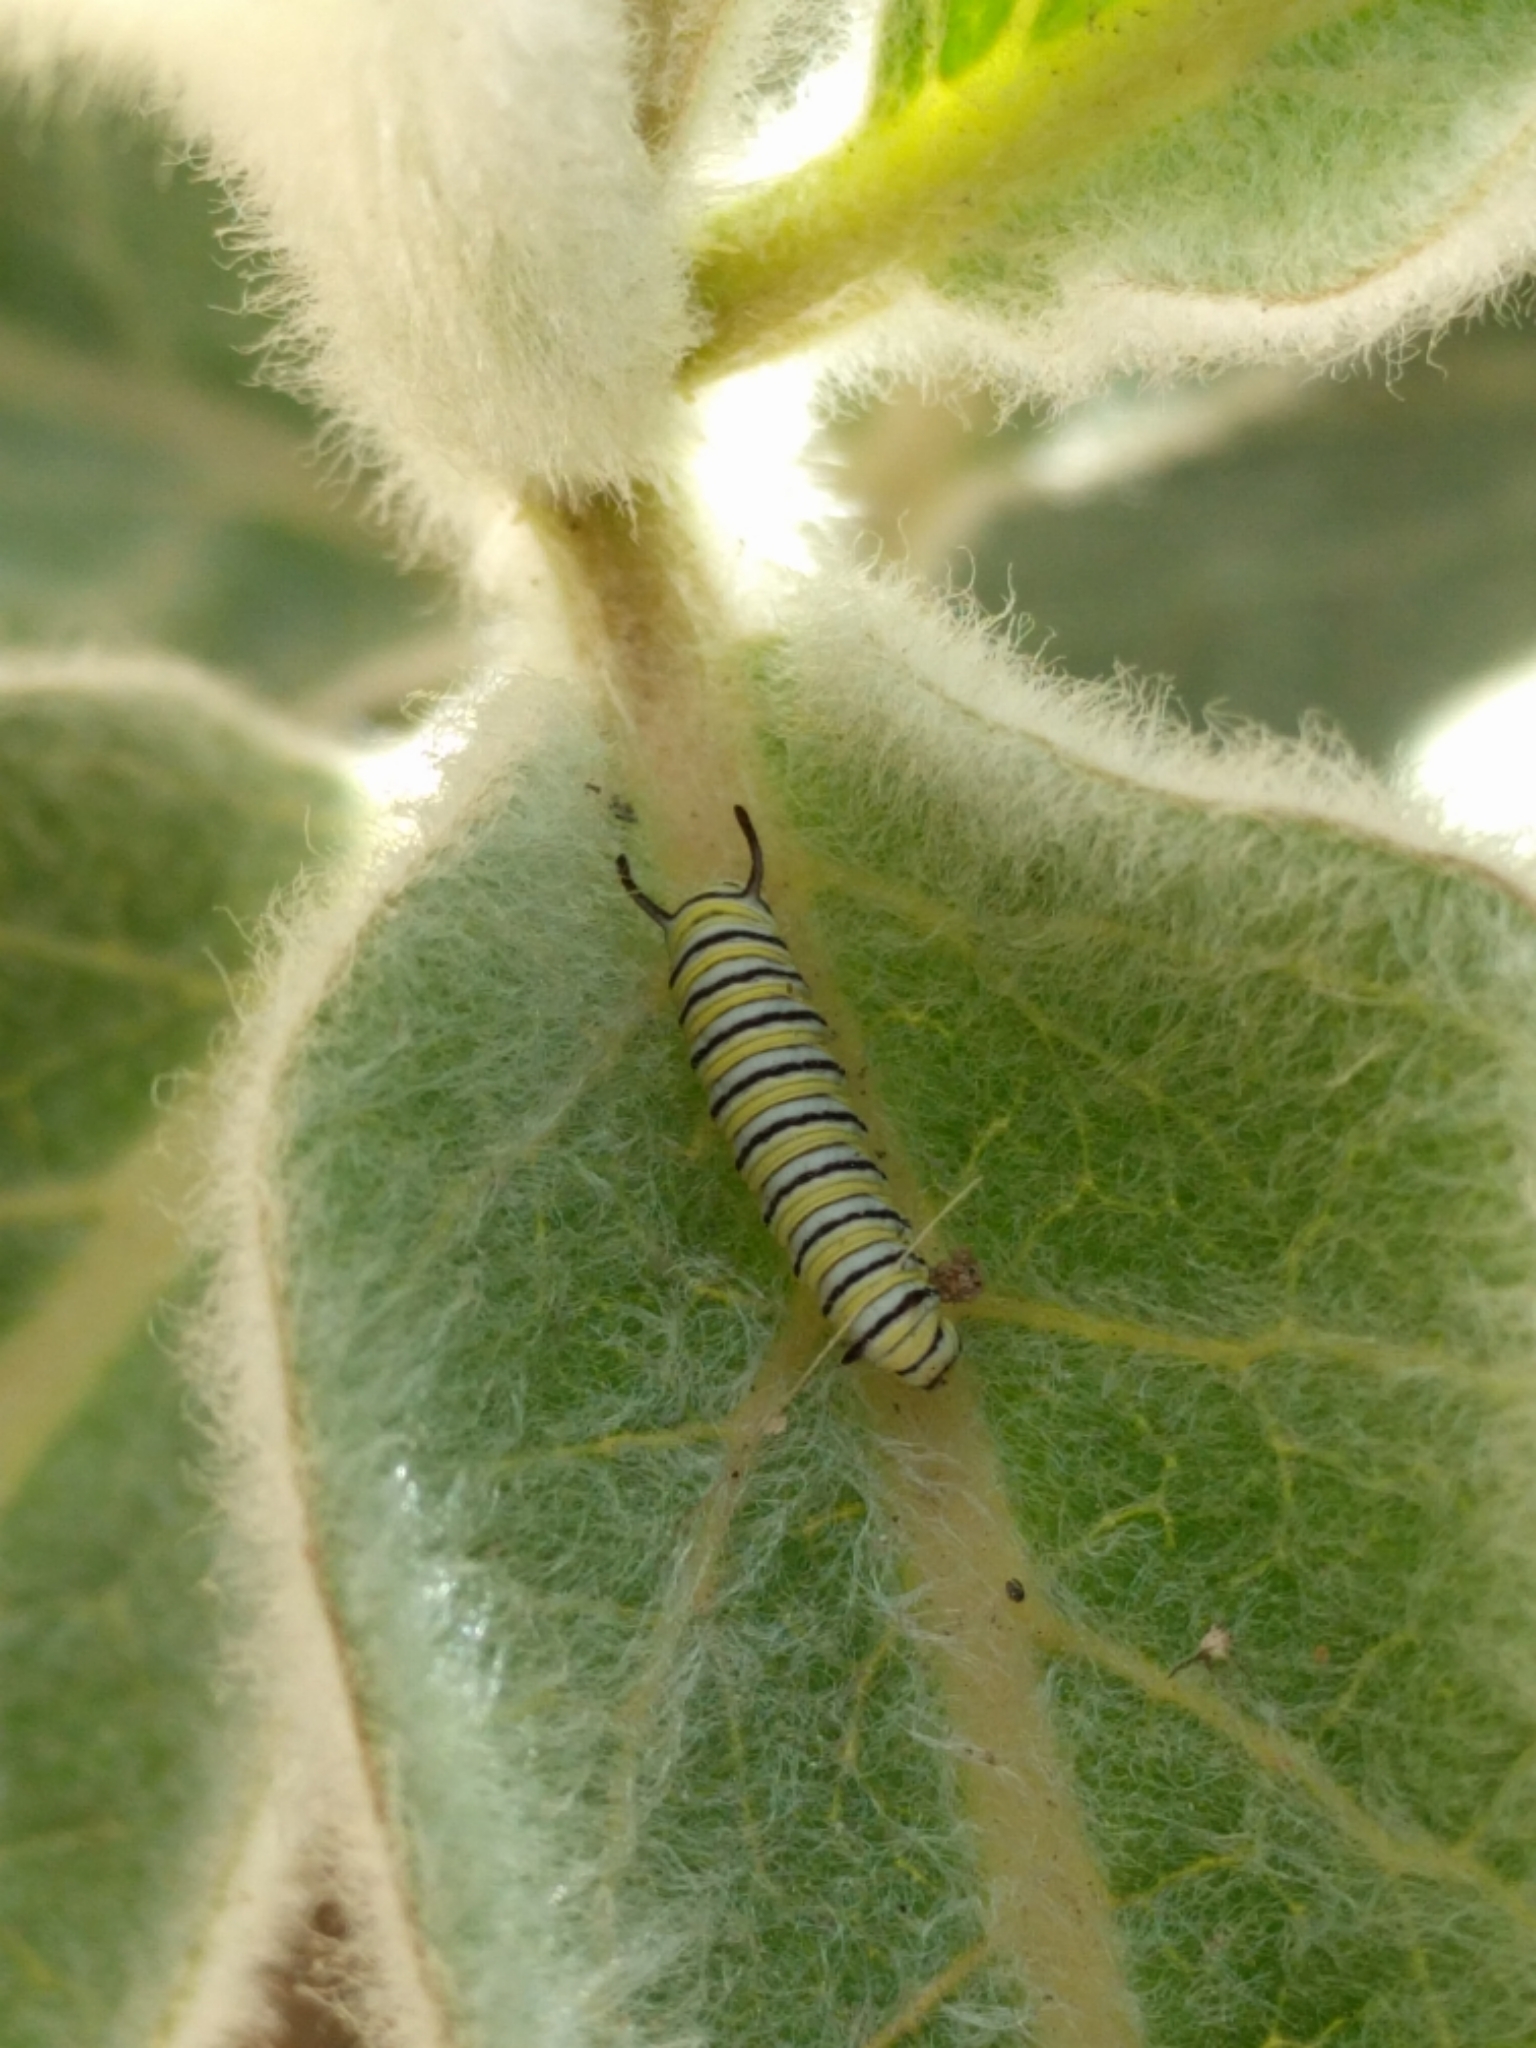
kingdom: Animalia
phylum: Arthropoda
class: Insecta
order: Lepidoptera
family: Nymphalidae
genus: Danaus
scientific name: Danaus plexippus
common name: Monarch
